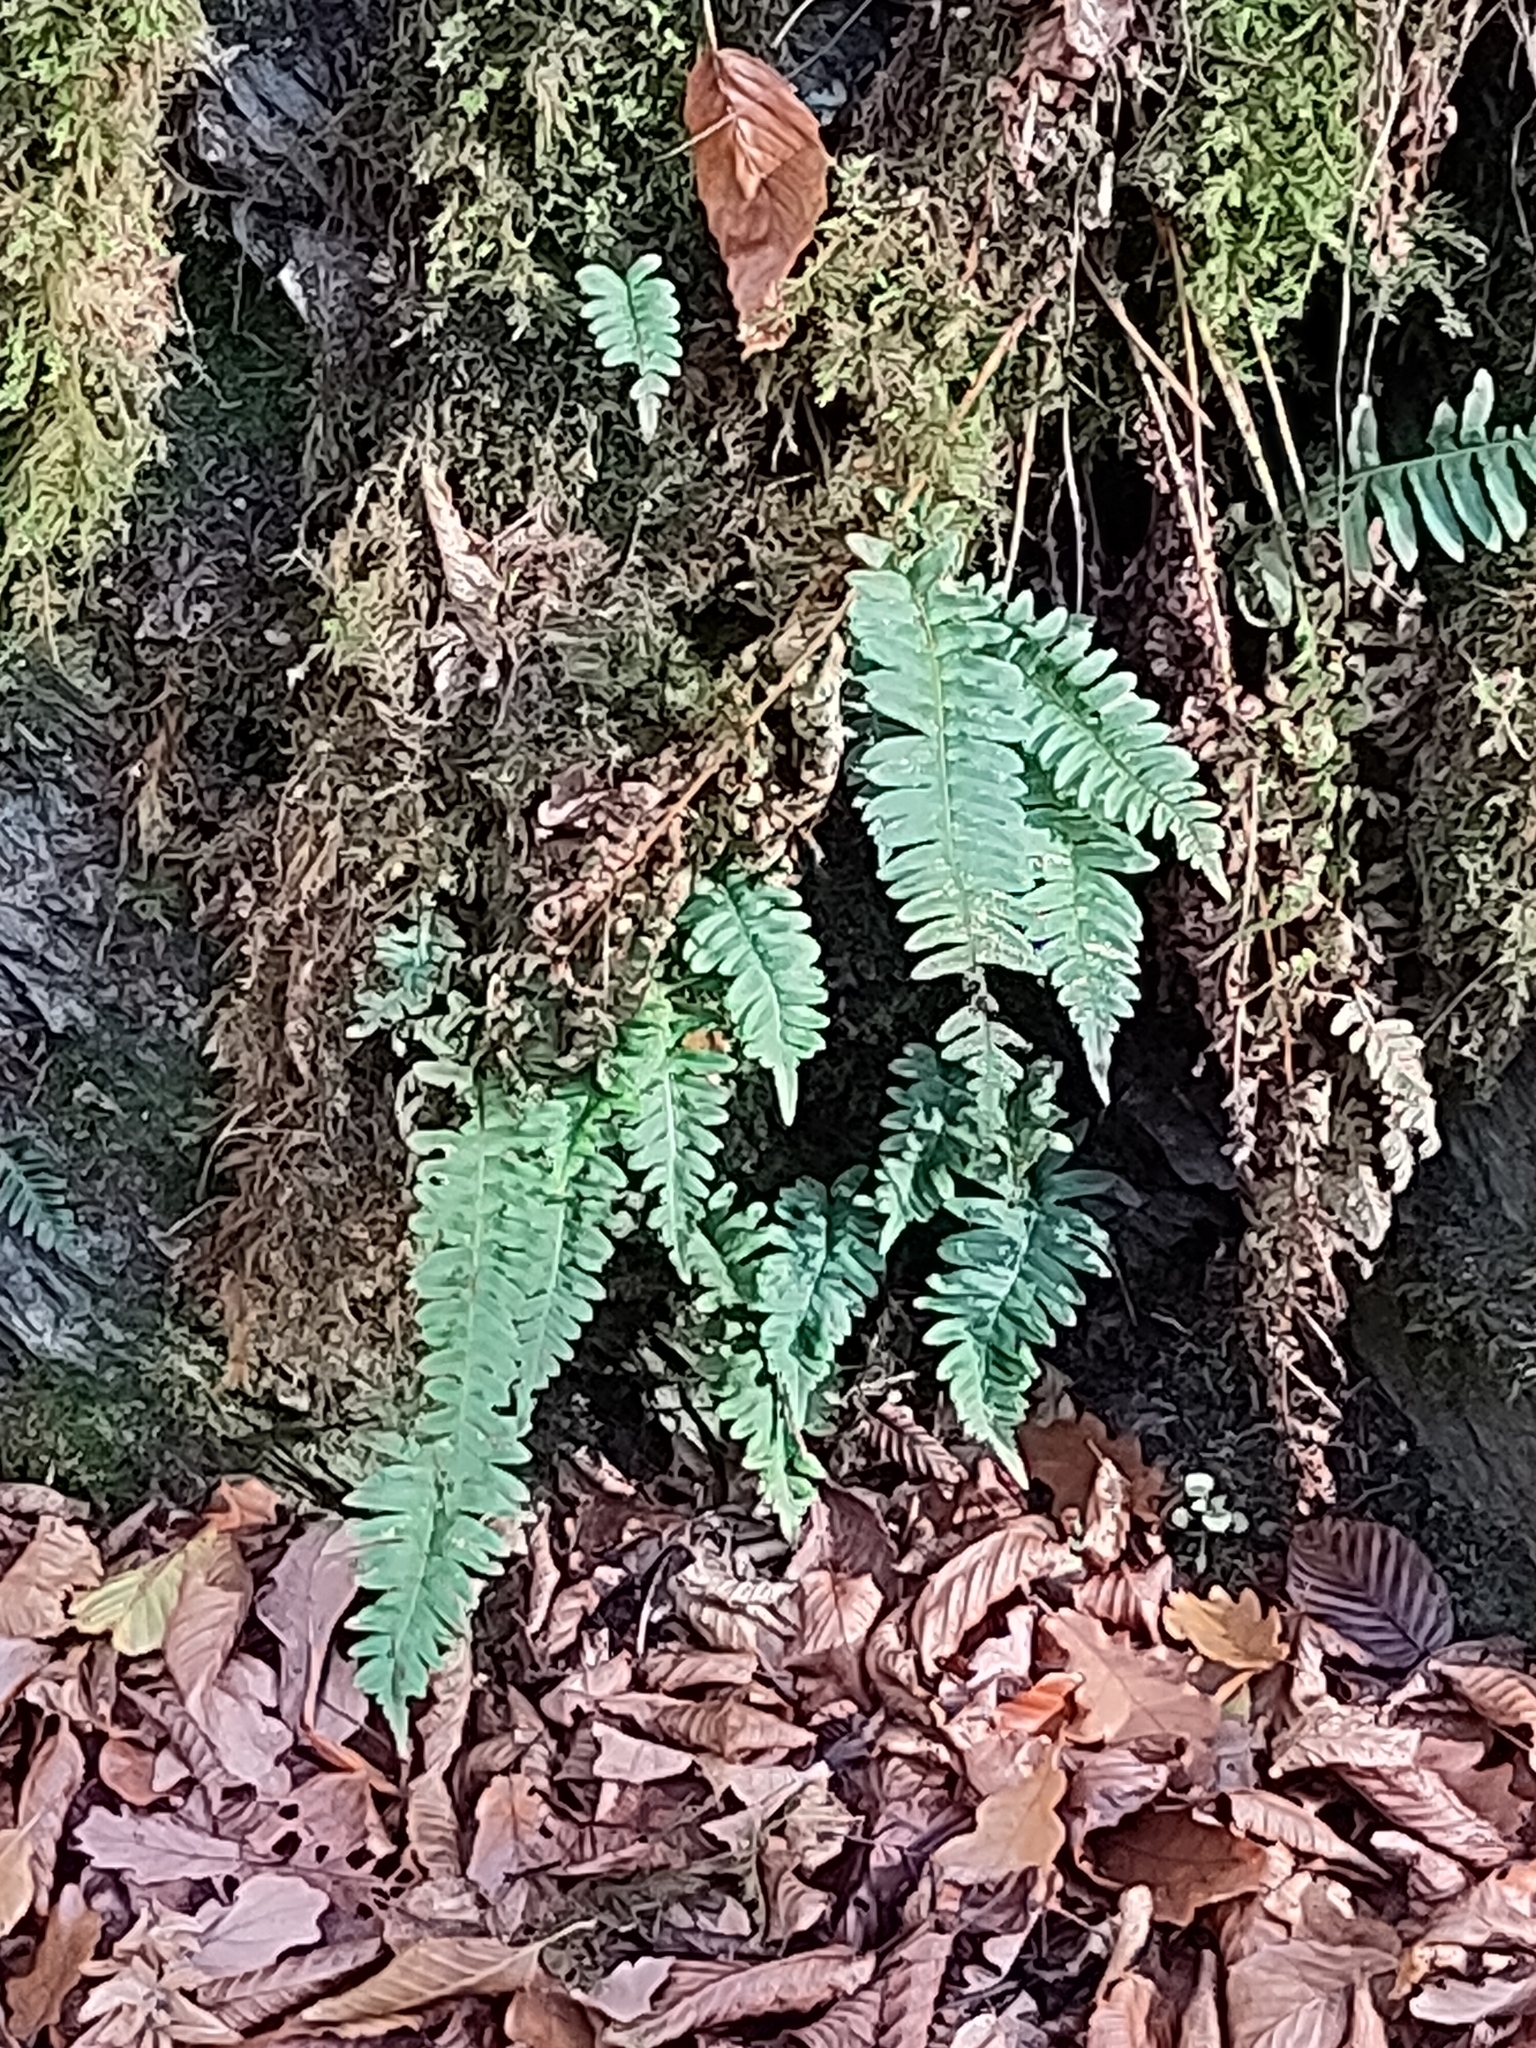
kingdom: Plantae
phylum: Tracheophyta
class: Polypodiopsida
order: Polypodiales
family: Polypodiaceae
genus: Polypodium
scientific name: Polypodium
